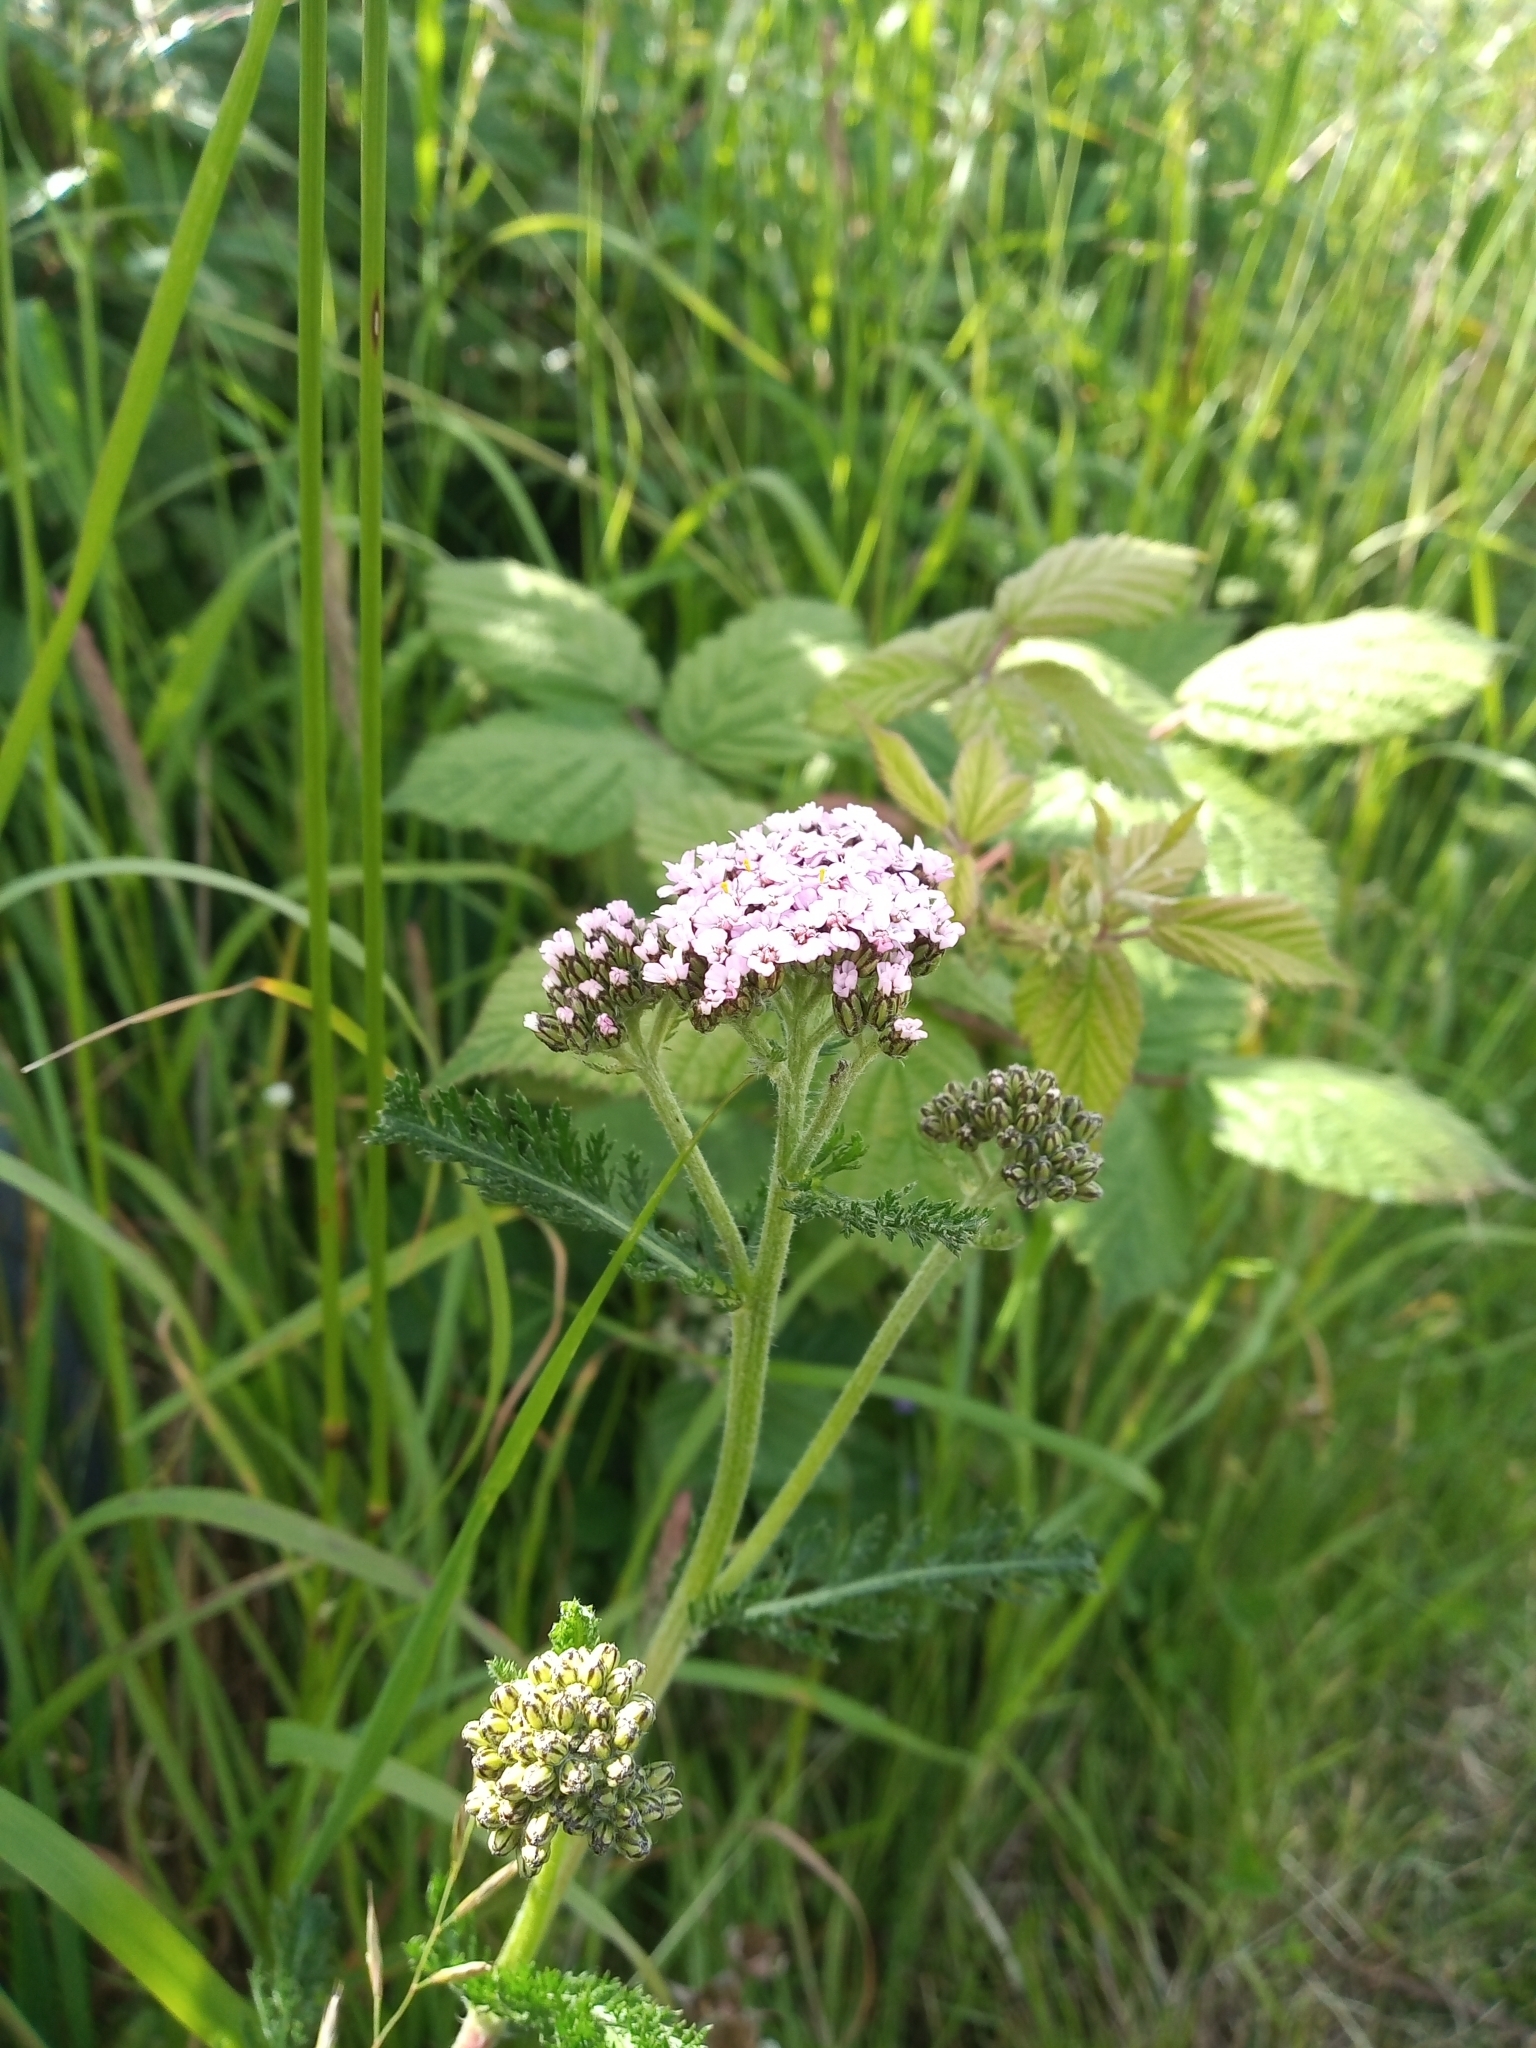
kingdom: Plantae
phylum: Tracheophyta
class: Magnoliopsida
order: Asterales
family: Asteraceae
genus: Achillea
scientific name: Achillea millefolium
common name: Yarrow
